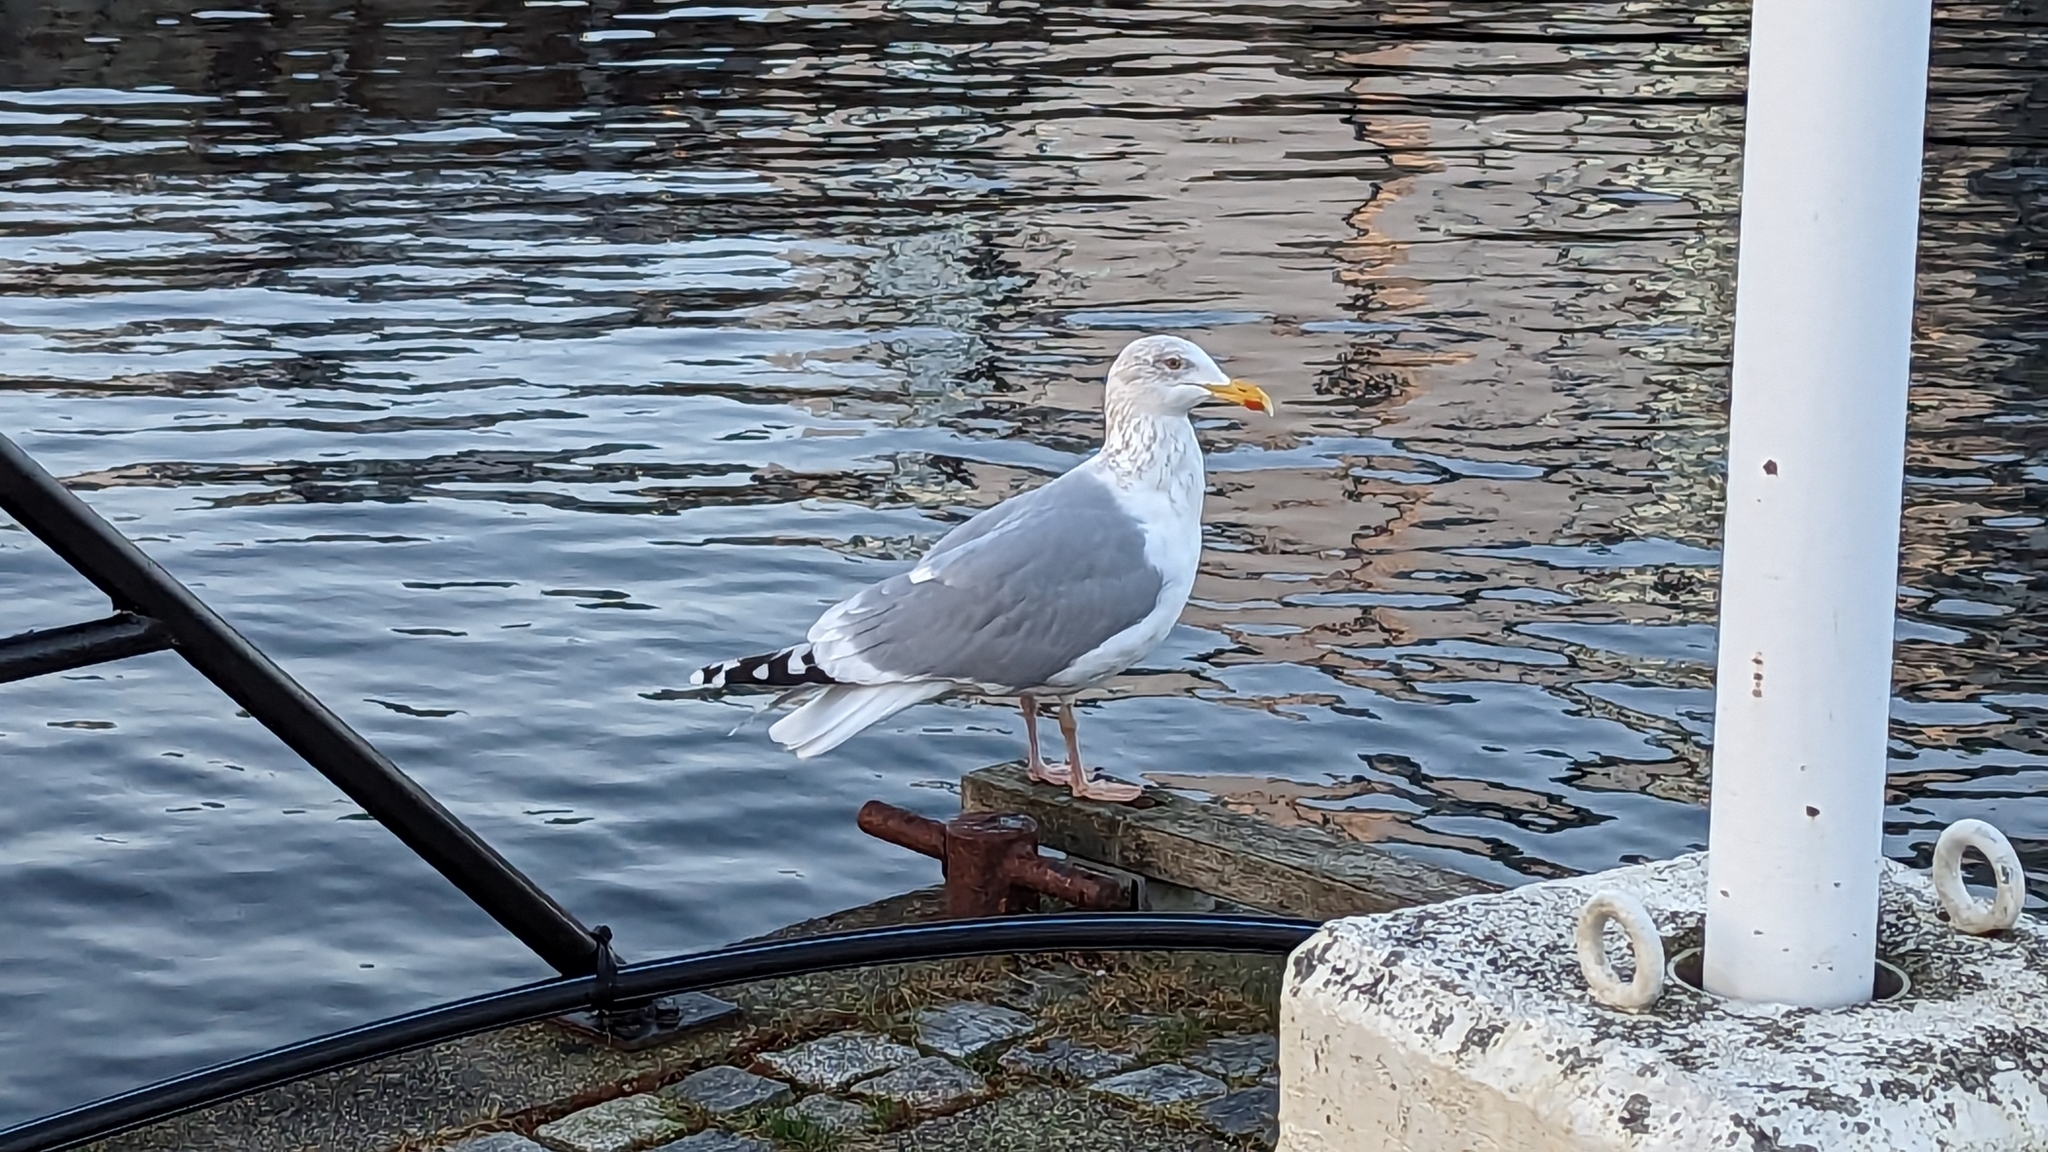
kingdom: Animalia
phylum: Chordata
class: Aves
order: Charadriiformes
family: Laridae
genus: Larus
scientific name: Larus argentatus
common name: Herring gull
